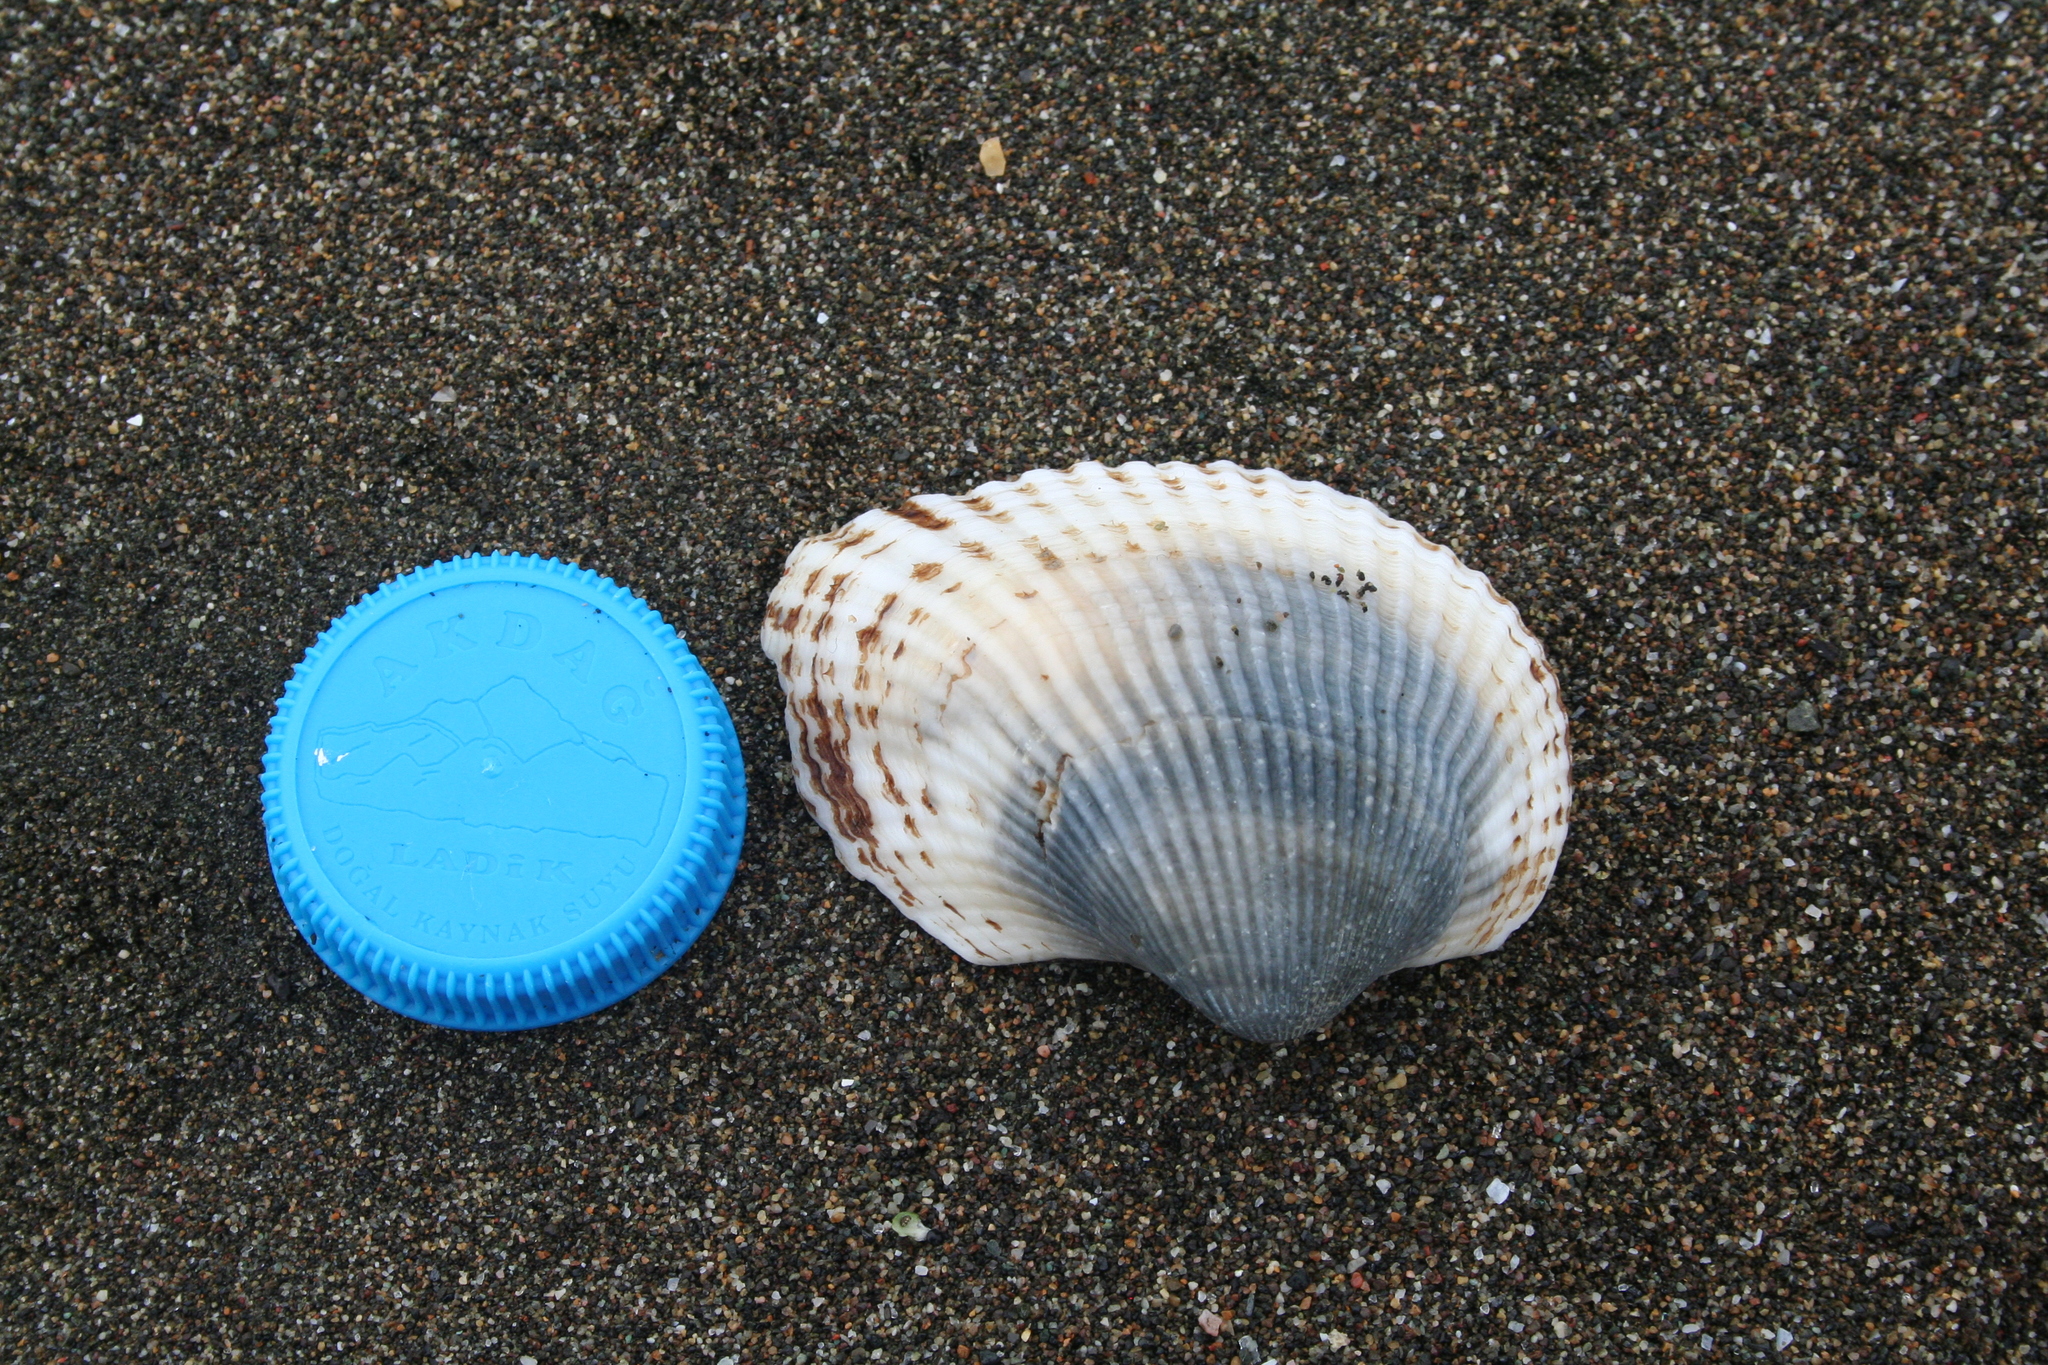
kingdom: Animalia
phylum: Mollusca
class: Bivalvia
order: Arcida
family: Arcidae
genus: Anadara
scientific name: Anadara kagoshimensis
